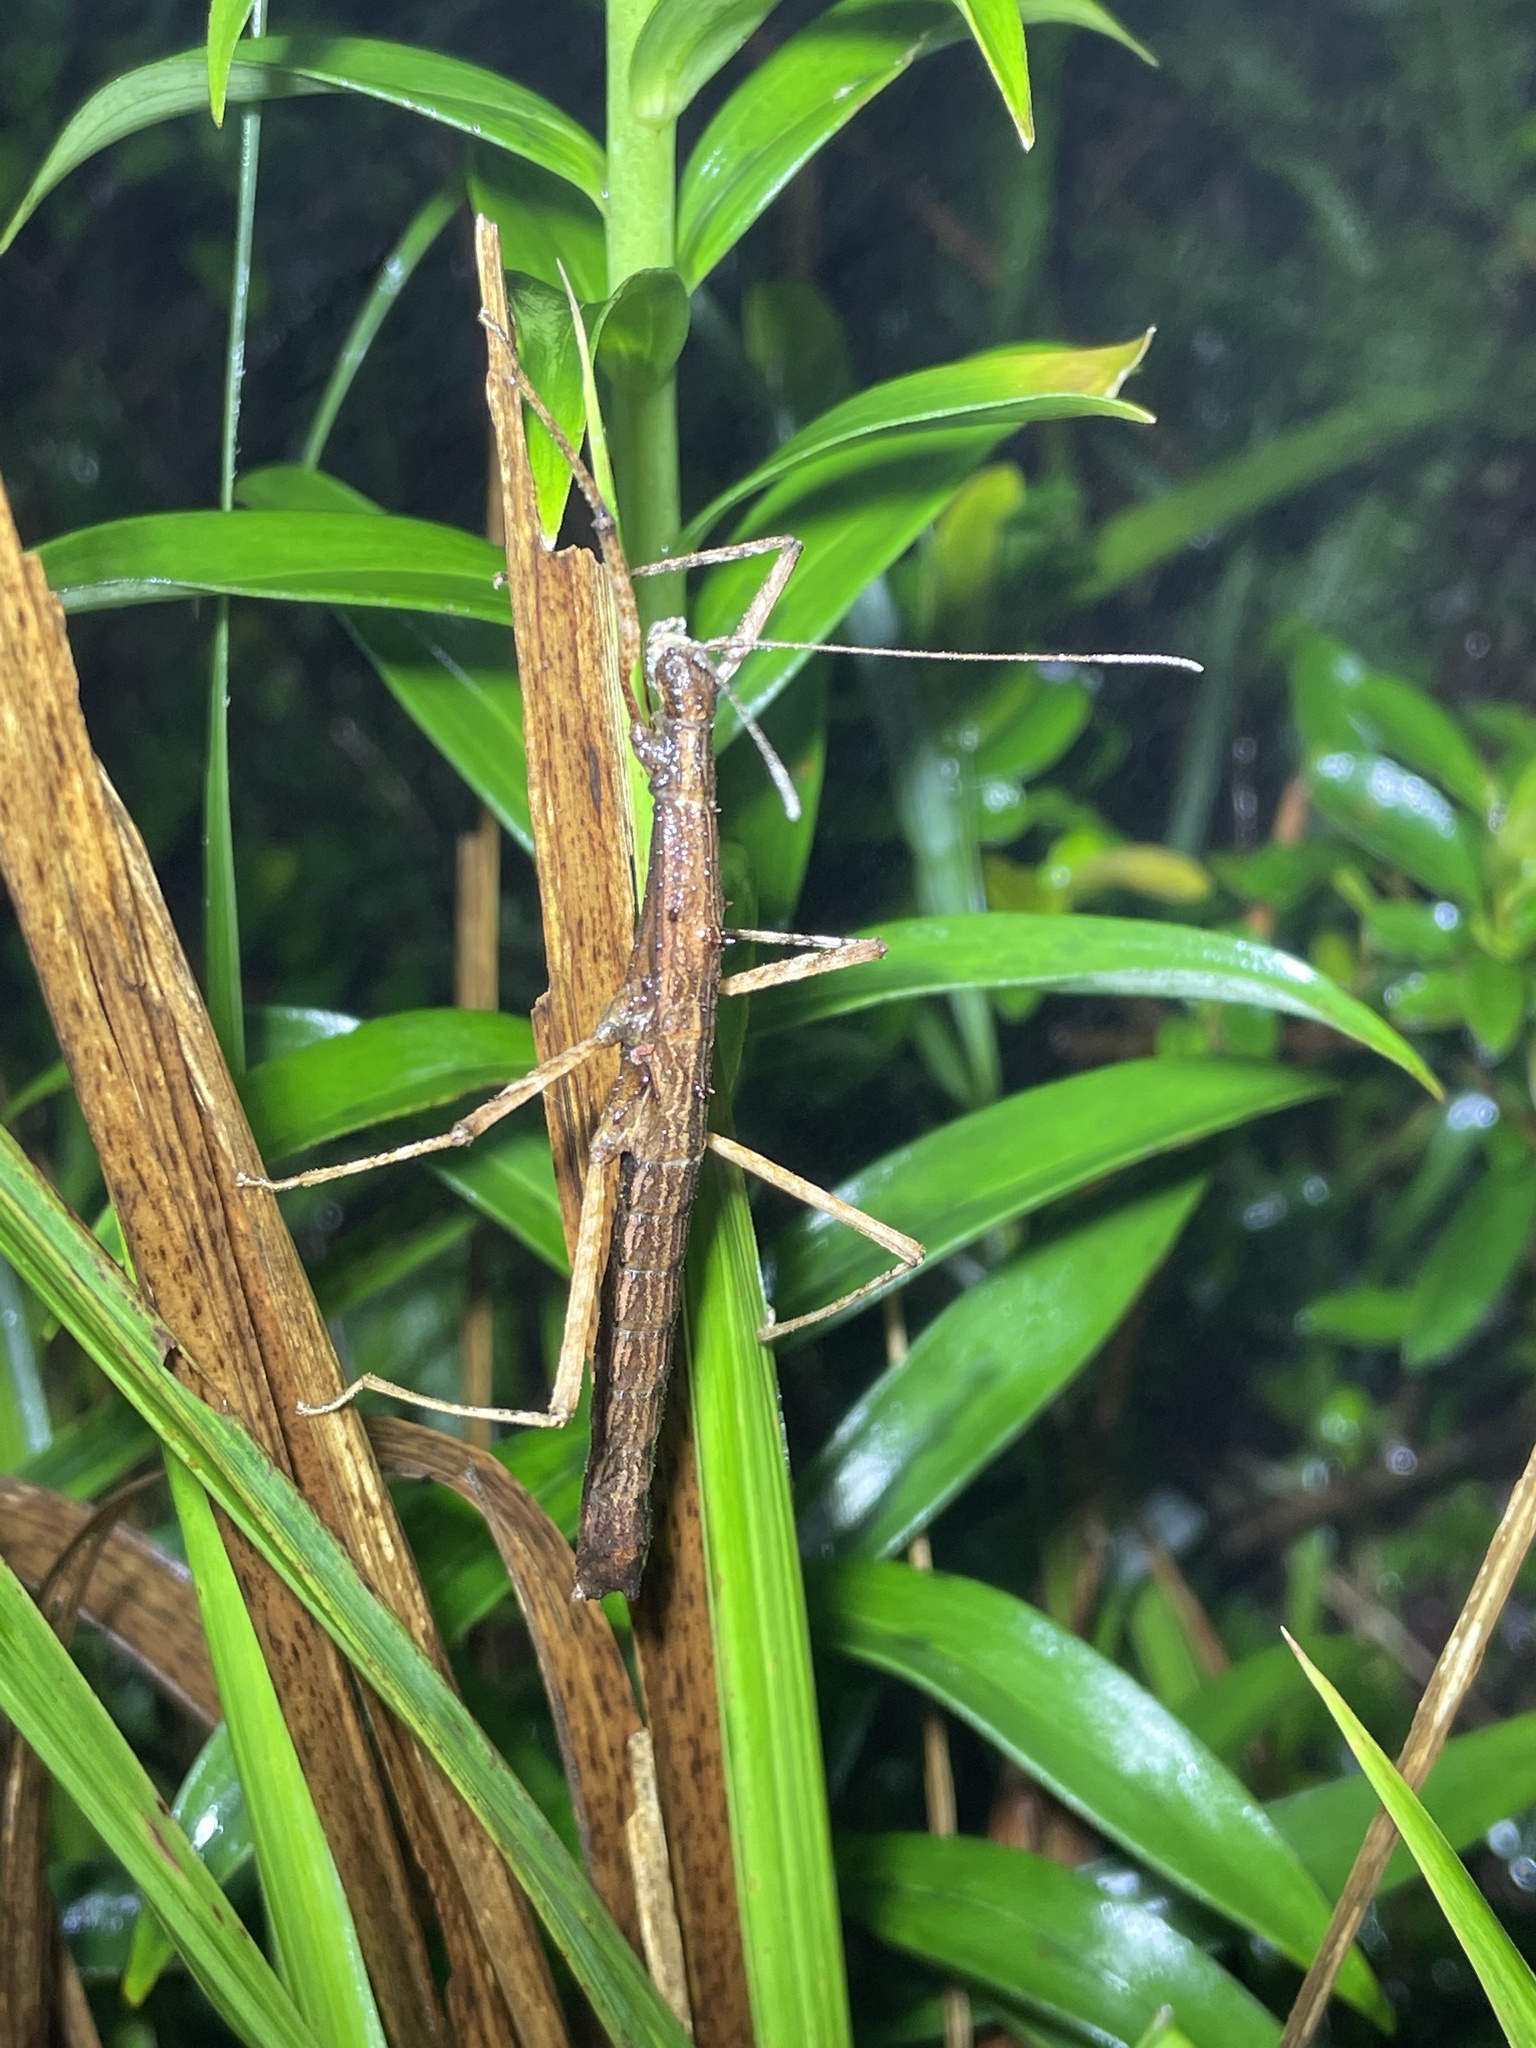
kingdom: Animalia
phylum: Arthropoda
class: Insecta
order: Phasmida
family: Lonchodidae
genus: Neohirasea
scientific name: Neohirasea hongkongensis
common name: Hong kong spiny stick insect
